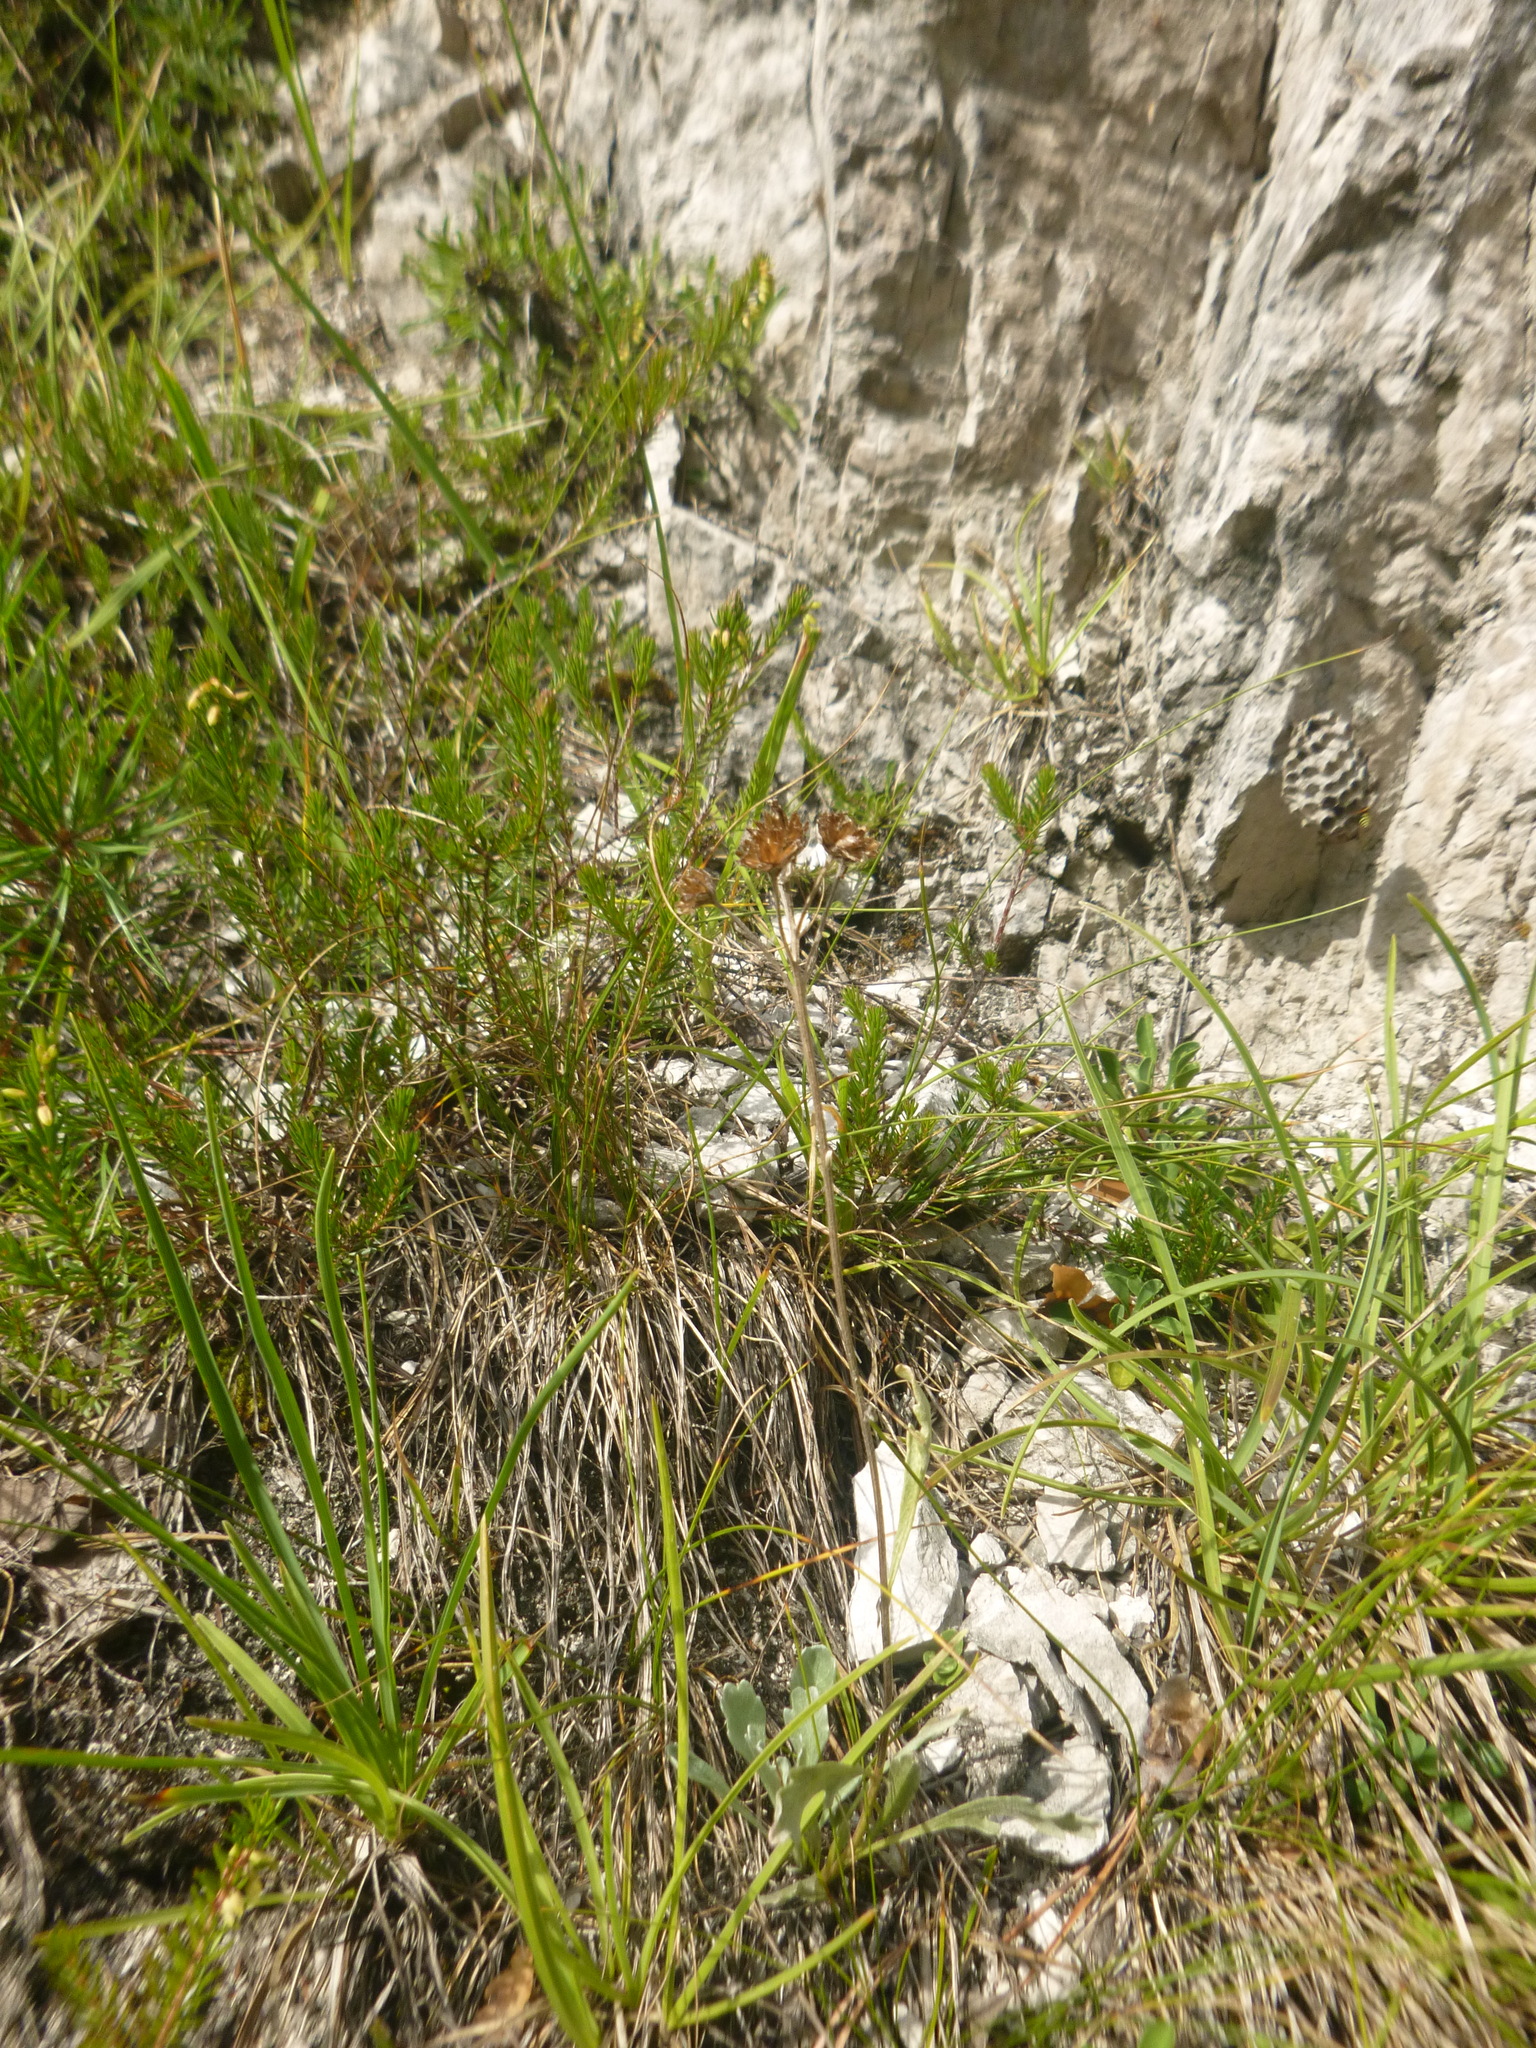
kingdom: Plantae
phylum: Tracheophyta
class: Magnoliopsida
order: Asterales
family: Asteraceae
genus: Achillea
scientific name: Achillea clavennae
